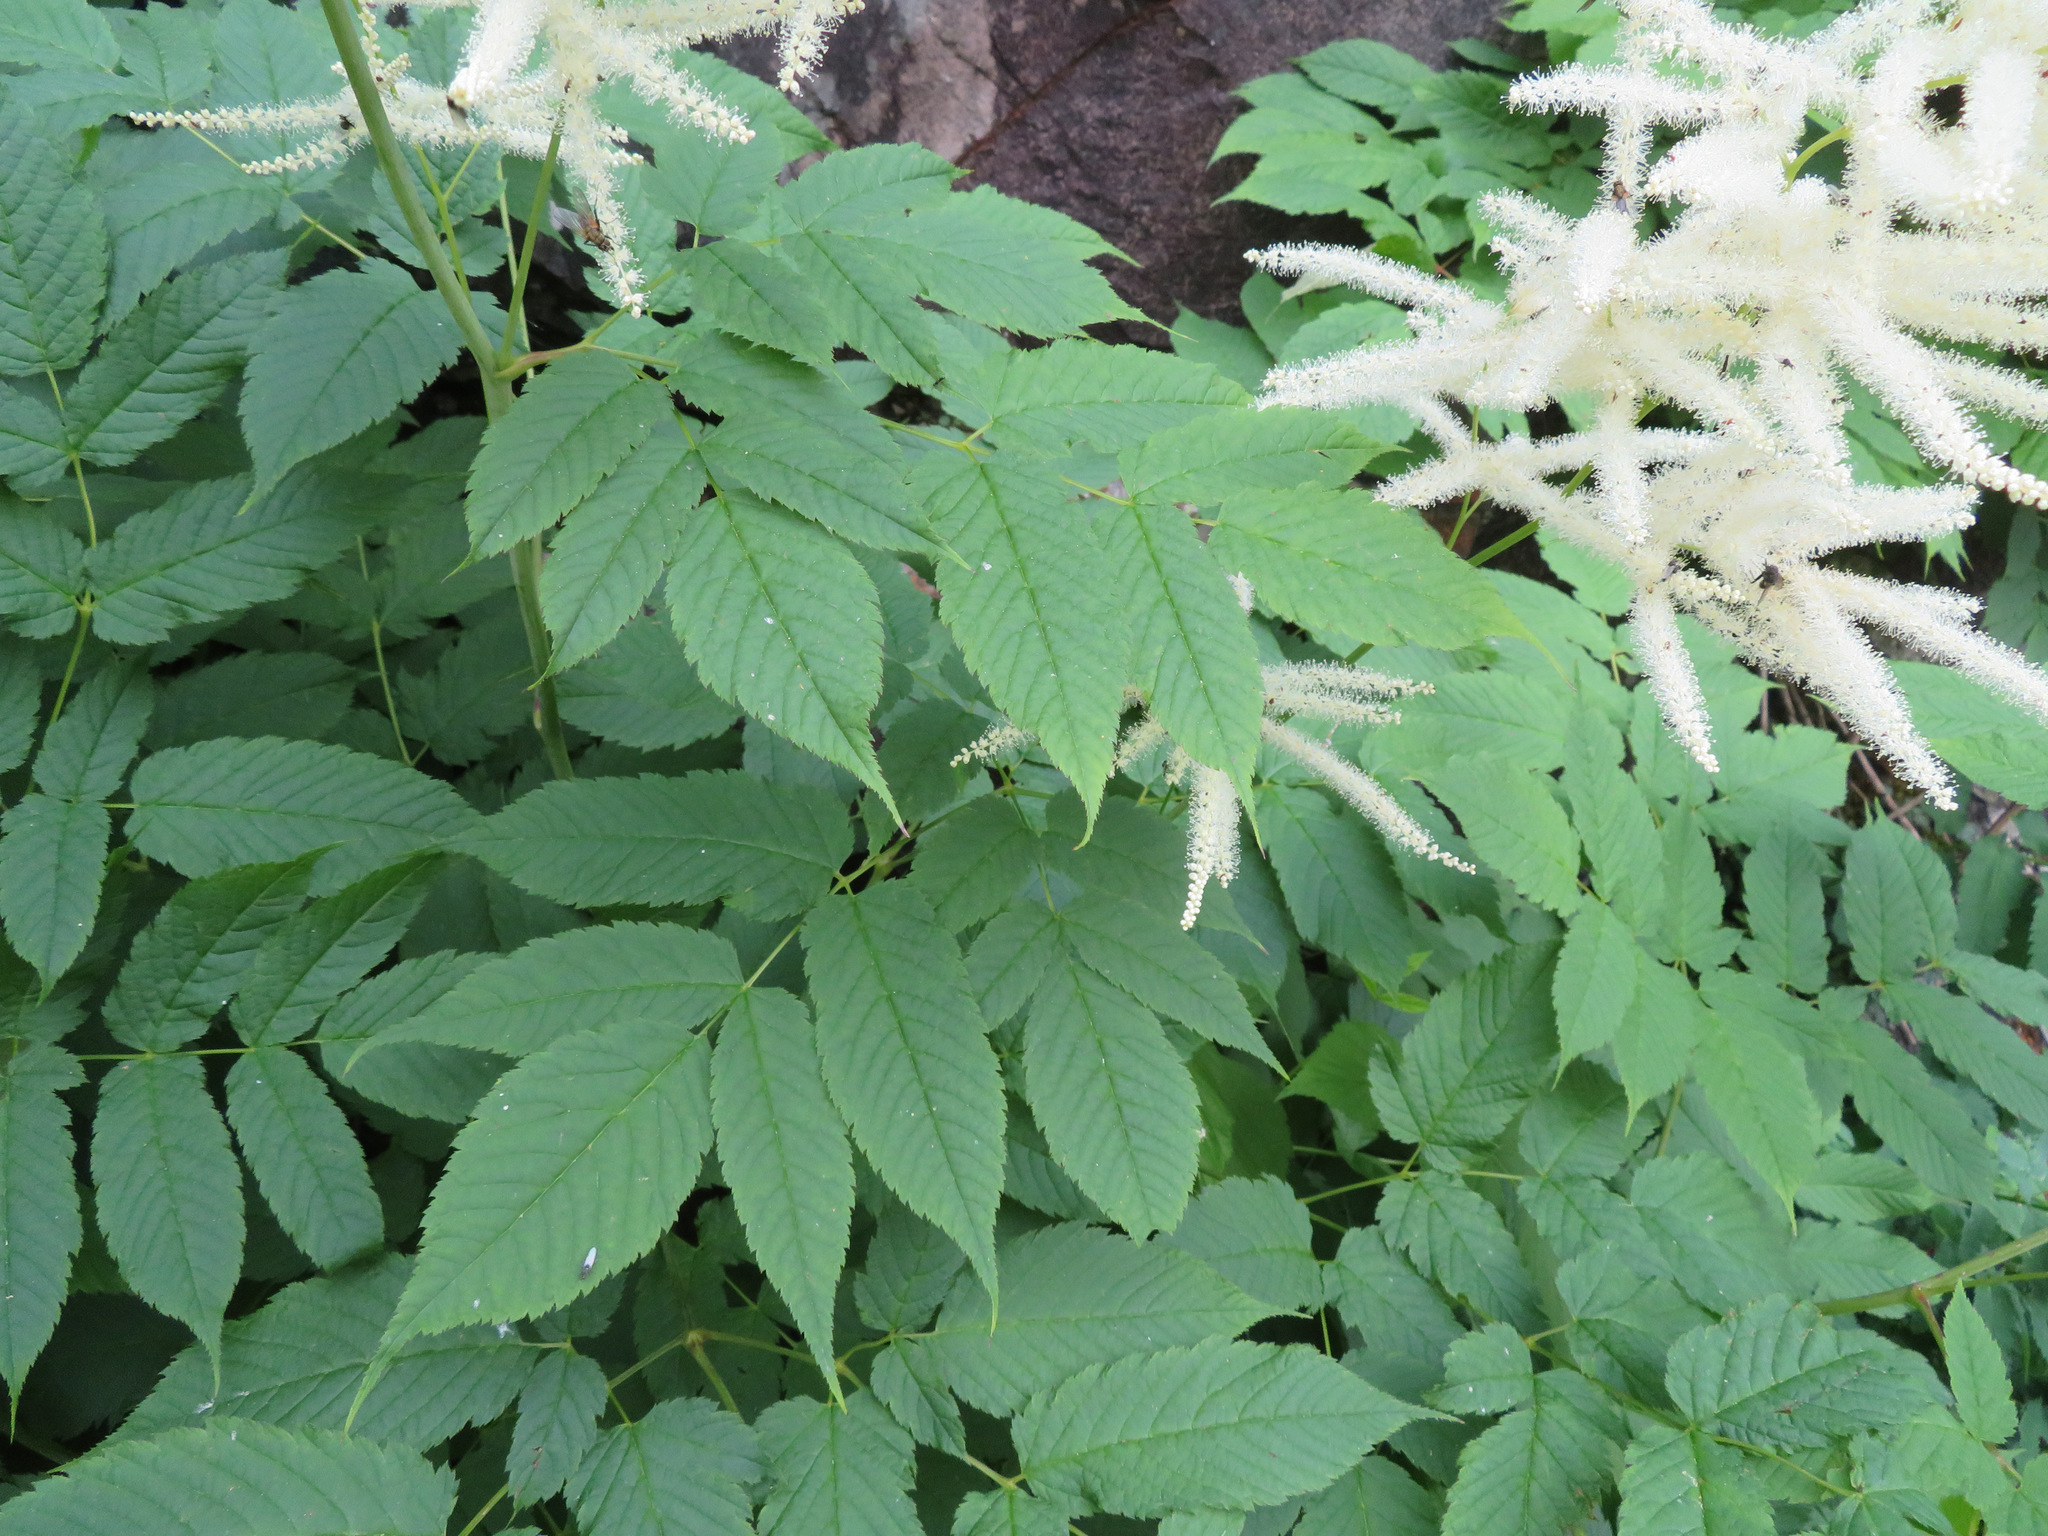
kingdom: Plantae
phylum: Tracheophyta
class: Magnoliopsida
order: Rosales
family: Rosaceae
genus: Aruncus
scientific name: Aruncus dioicus
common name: Buck's-beard
